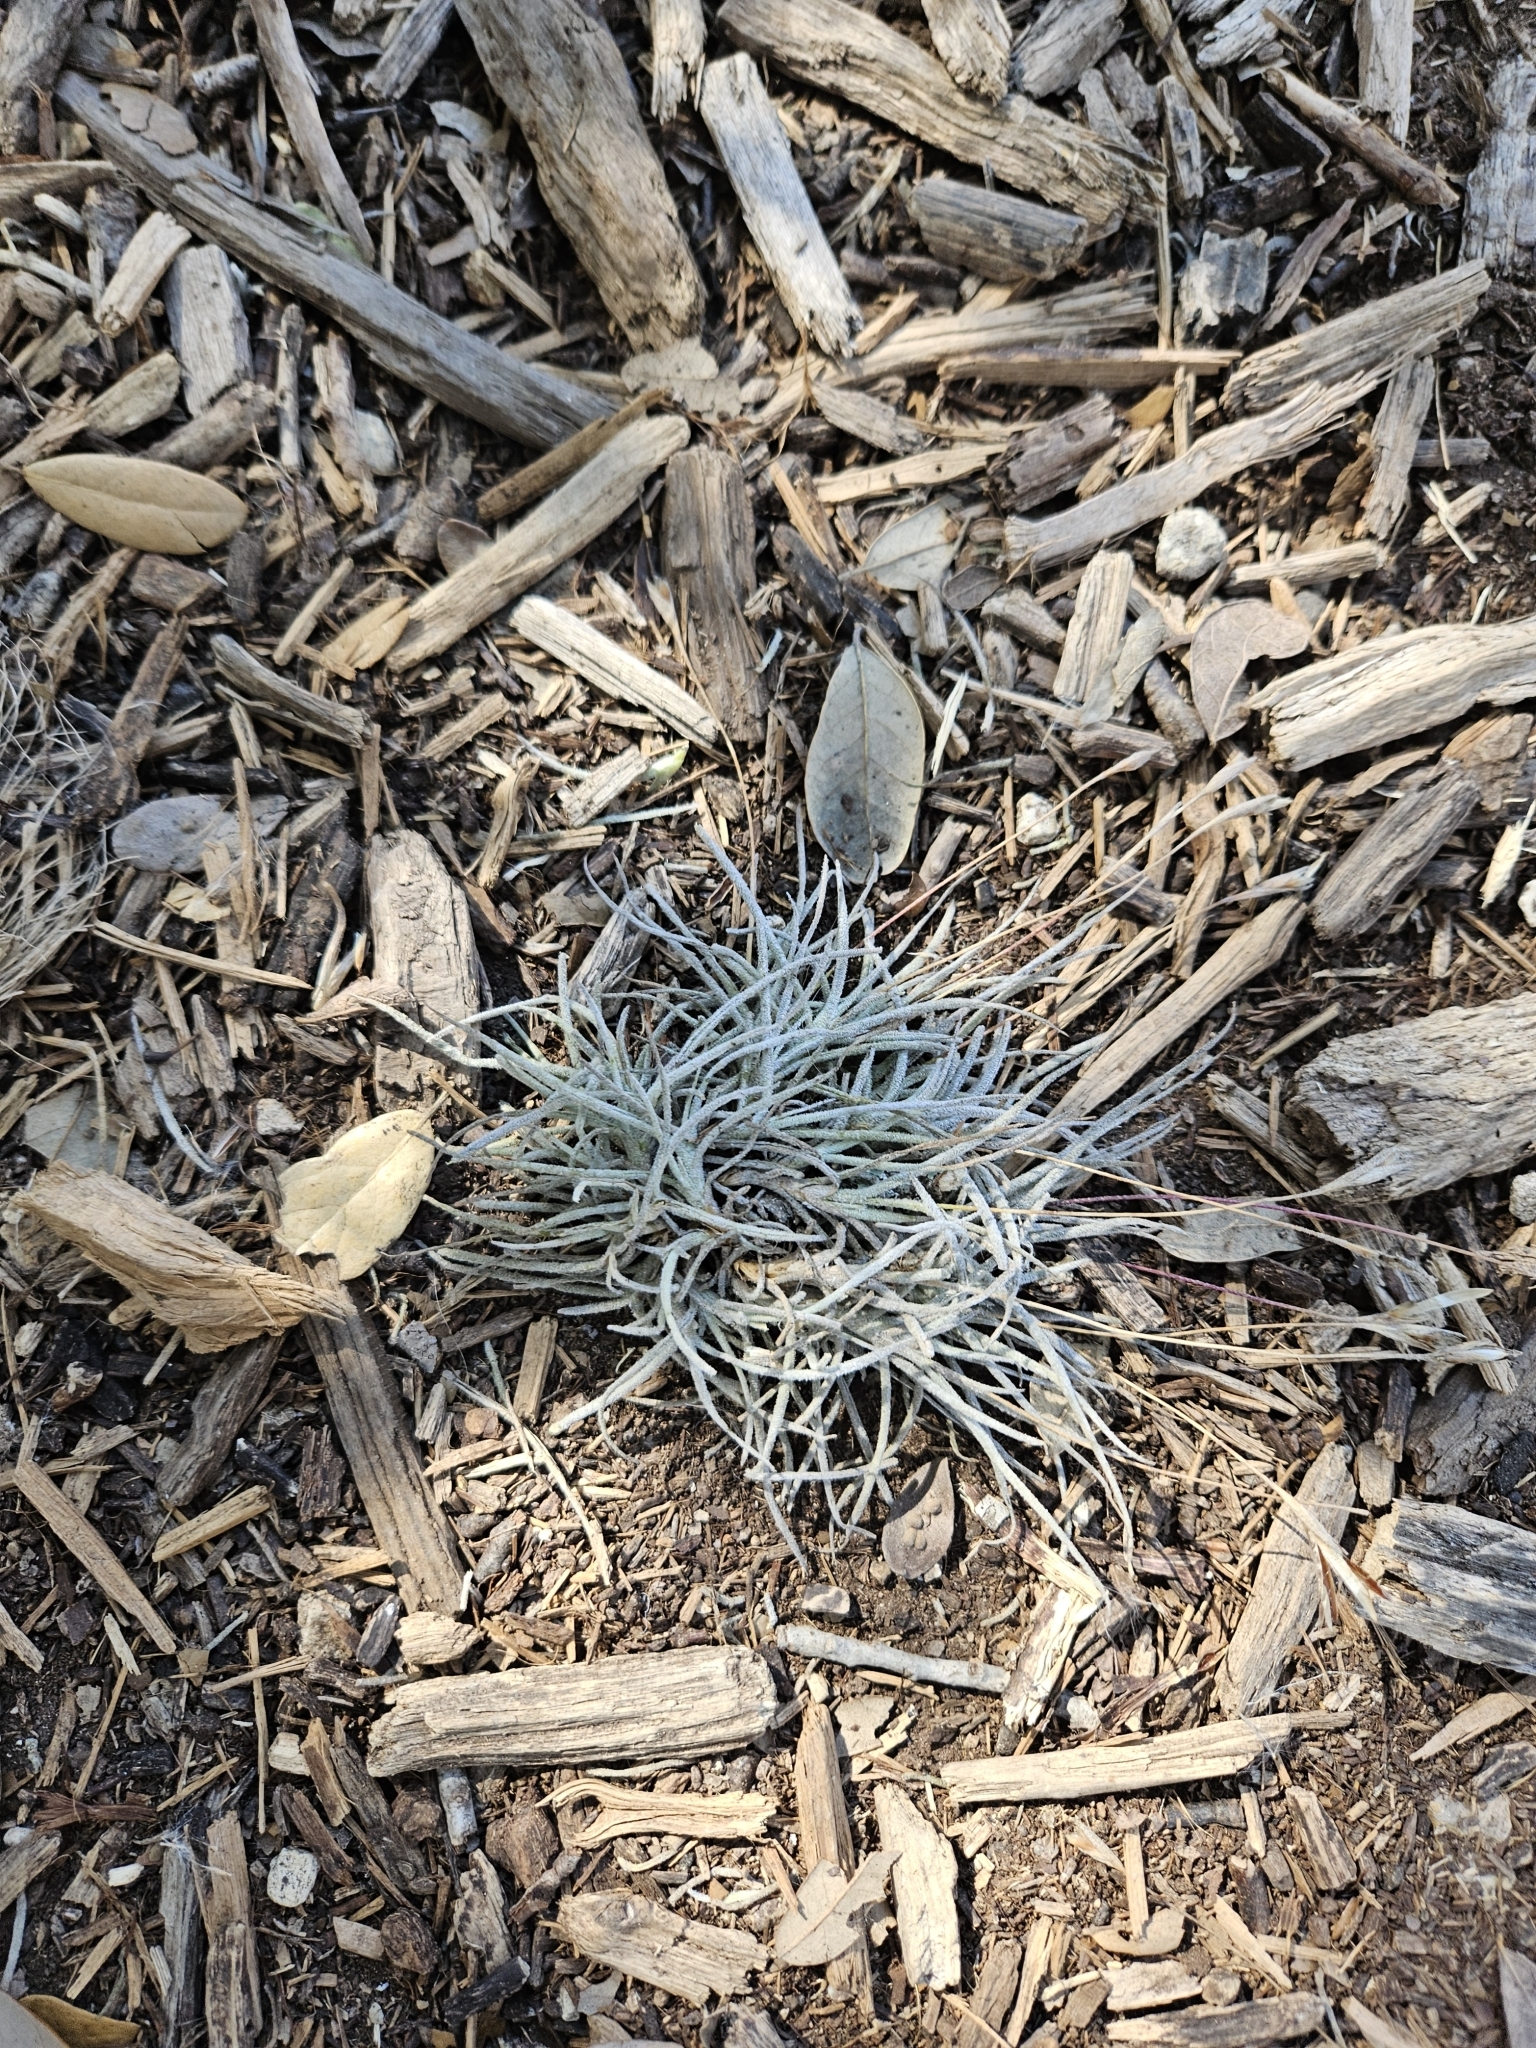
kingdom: Plantae
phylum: Tracheophyta
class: Liliopsida
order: Poales
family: Bromeliaceae
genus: Tillandsia
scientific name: Tillandsia recurvata
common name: Small ballmoss
